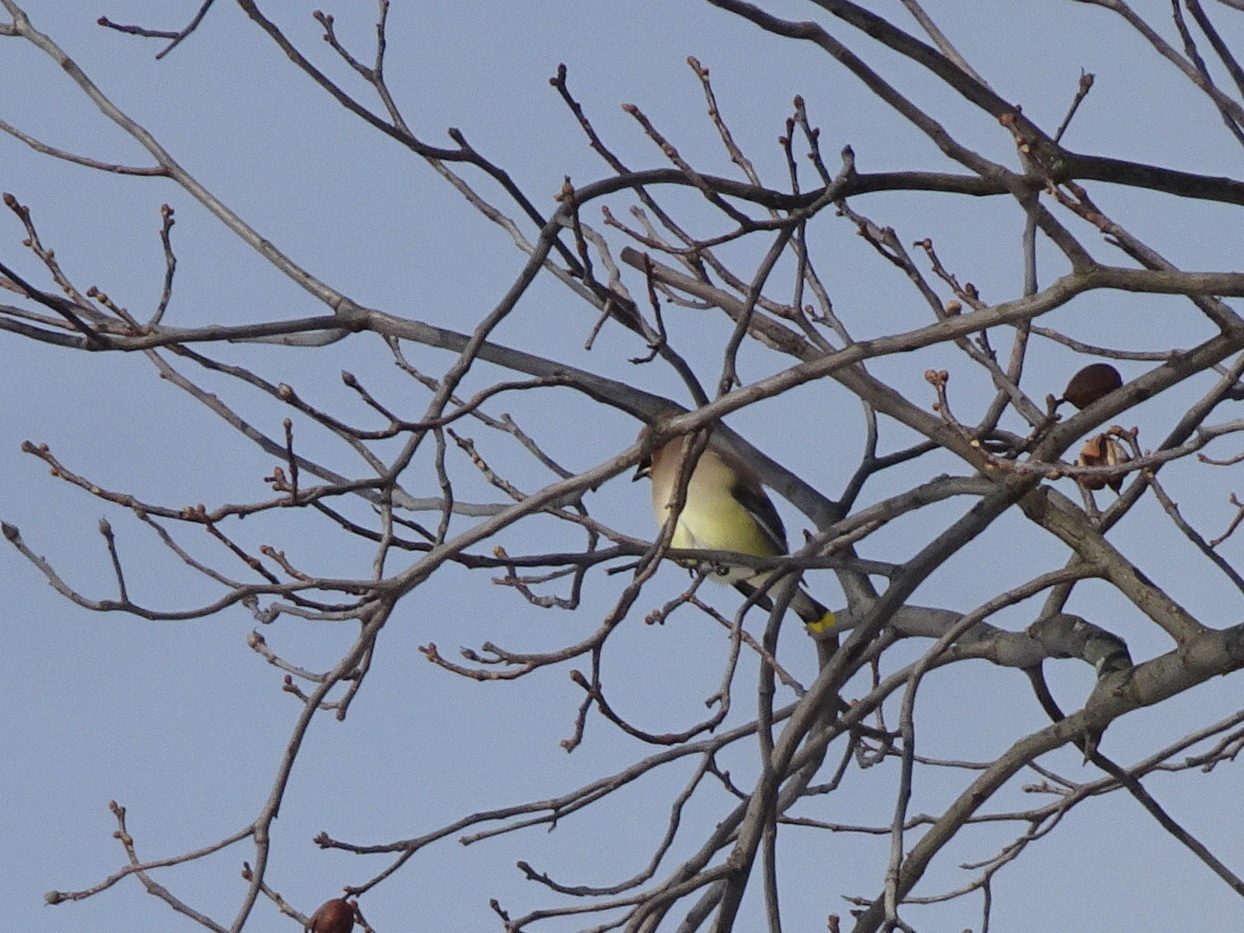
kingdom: Animalia
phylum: Chordata
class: Aves
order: Passeriformes
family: Bombycillidae
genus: Bombycilla
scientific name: Bombycilla cedrorum
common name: Cedar waxwing
